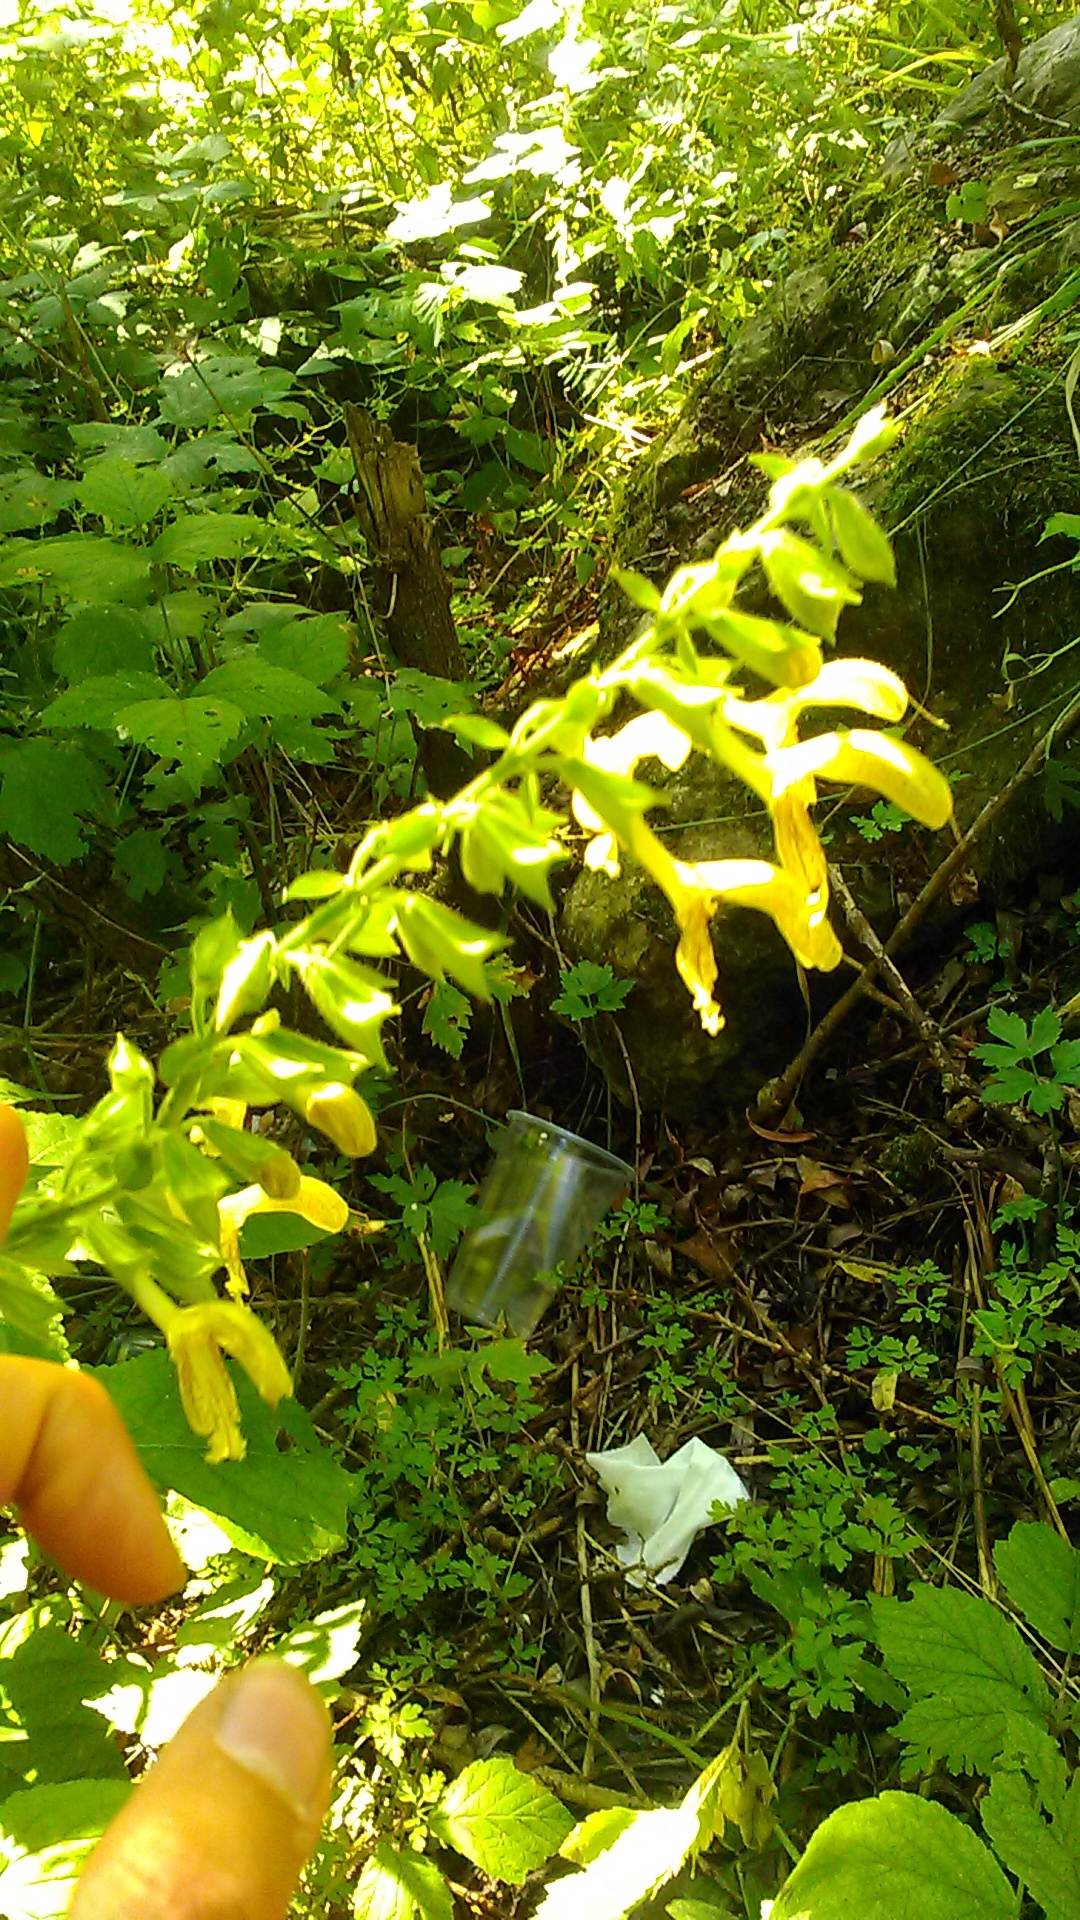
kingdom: Plantae
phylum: Tracheophyta
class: Magnoliopsida
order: Lamiales
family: Lamiaceae
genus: Salvia
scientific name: Salvia glutinosa
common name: Sticky clary
